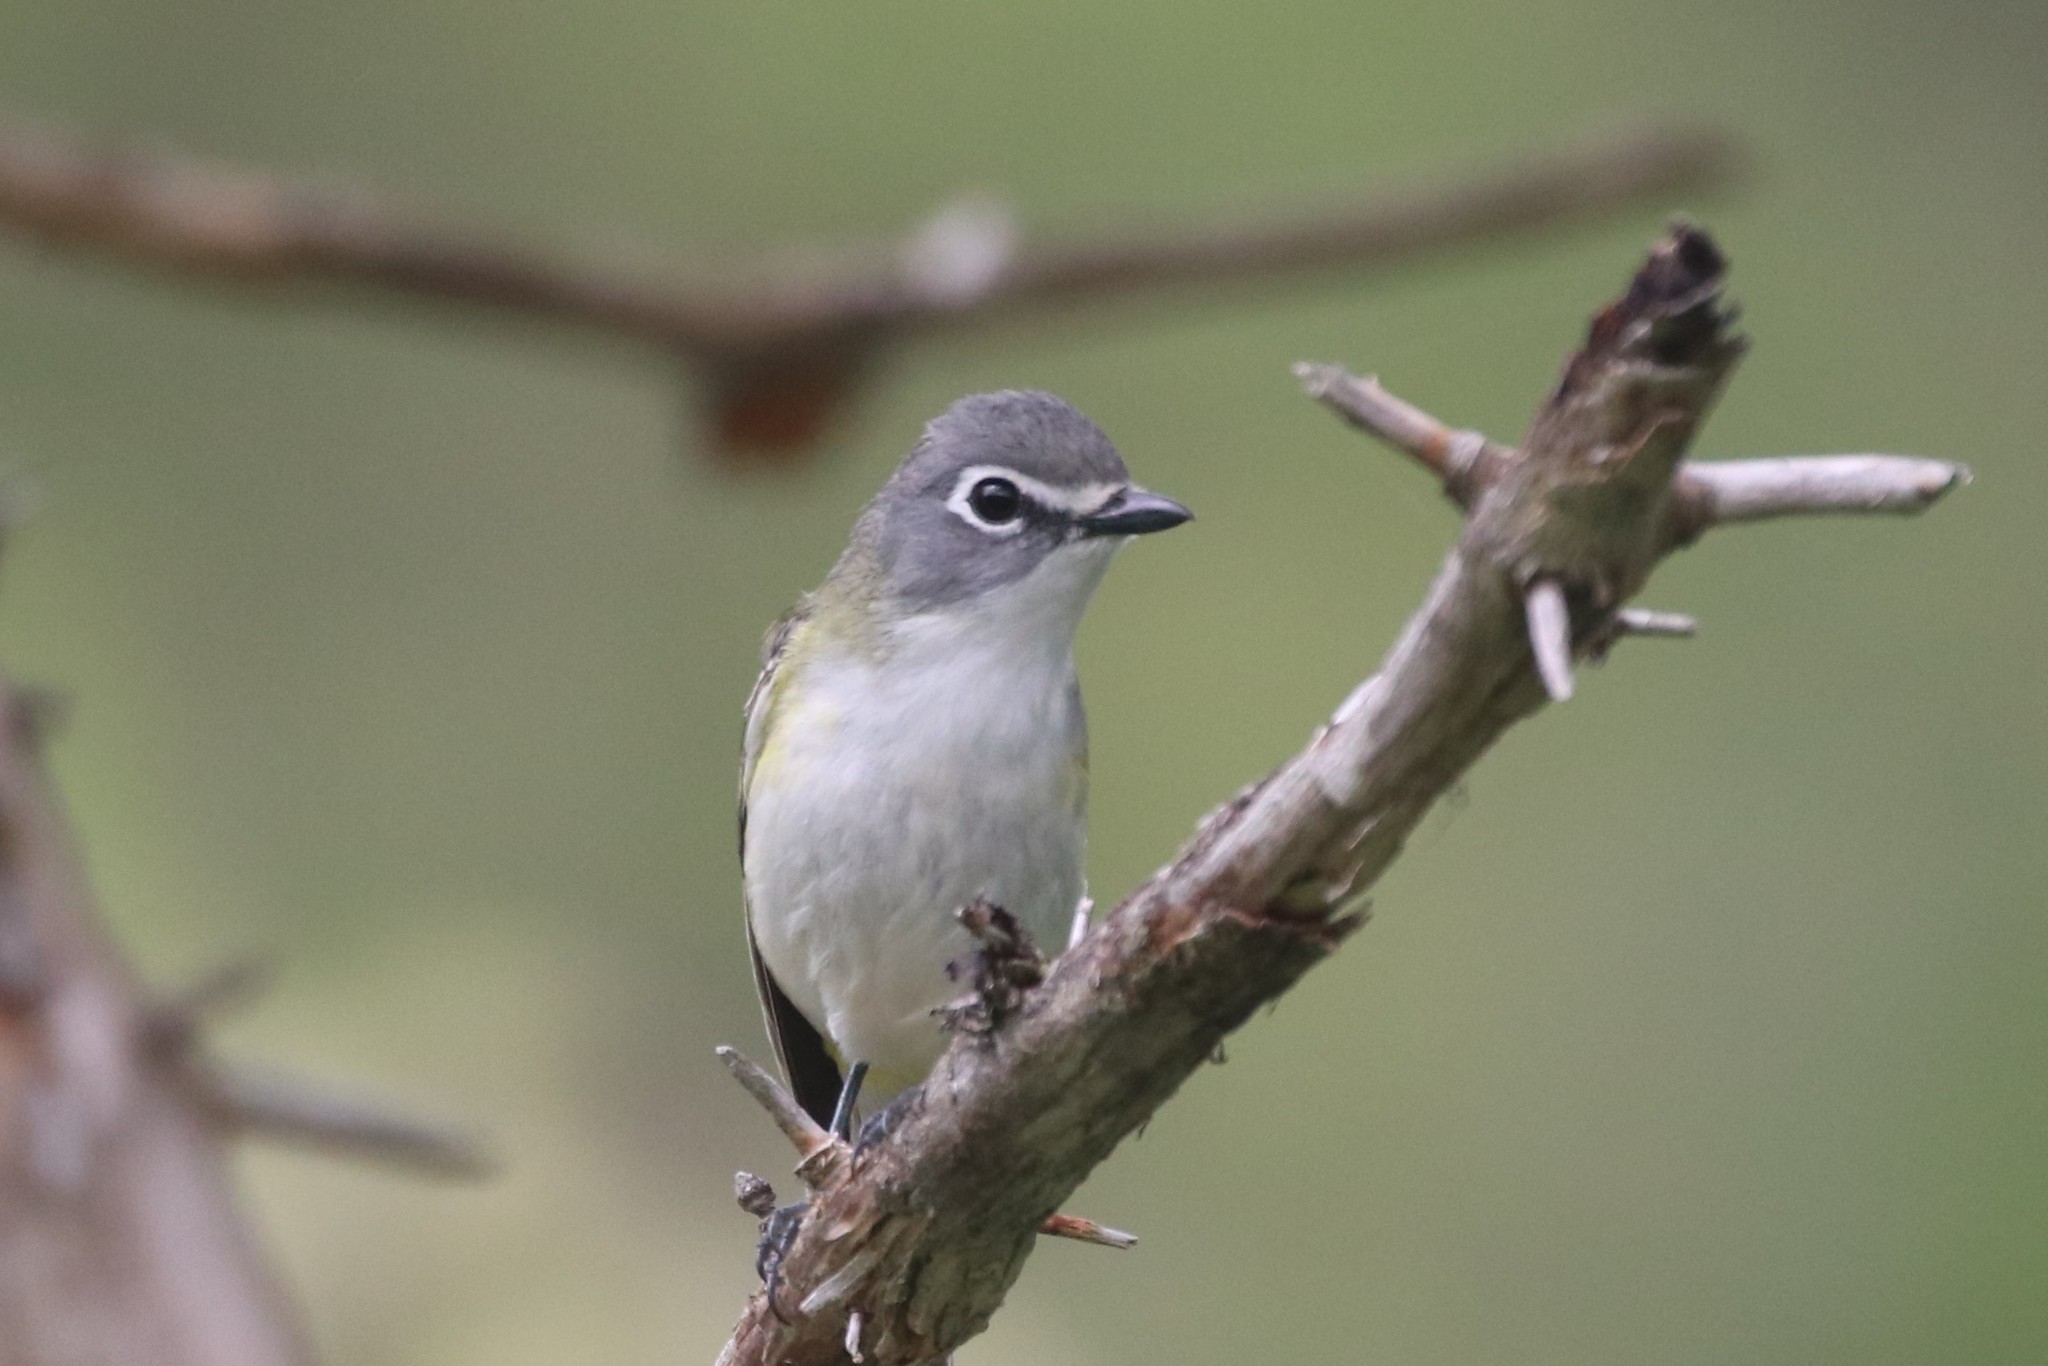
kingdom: Animalia
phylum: Chordata
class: Aves
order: Passeriformes
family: Vireonidae
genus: Vireo
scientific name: Vireo solitarius
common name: Blue-headed vireo
